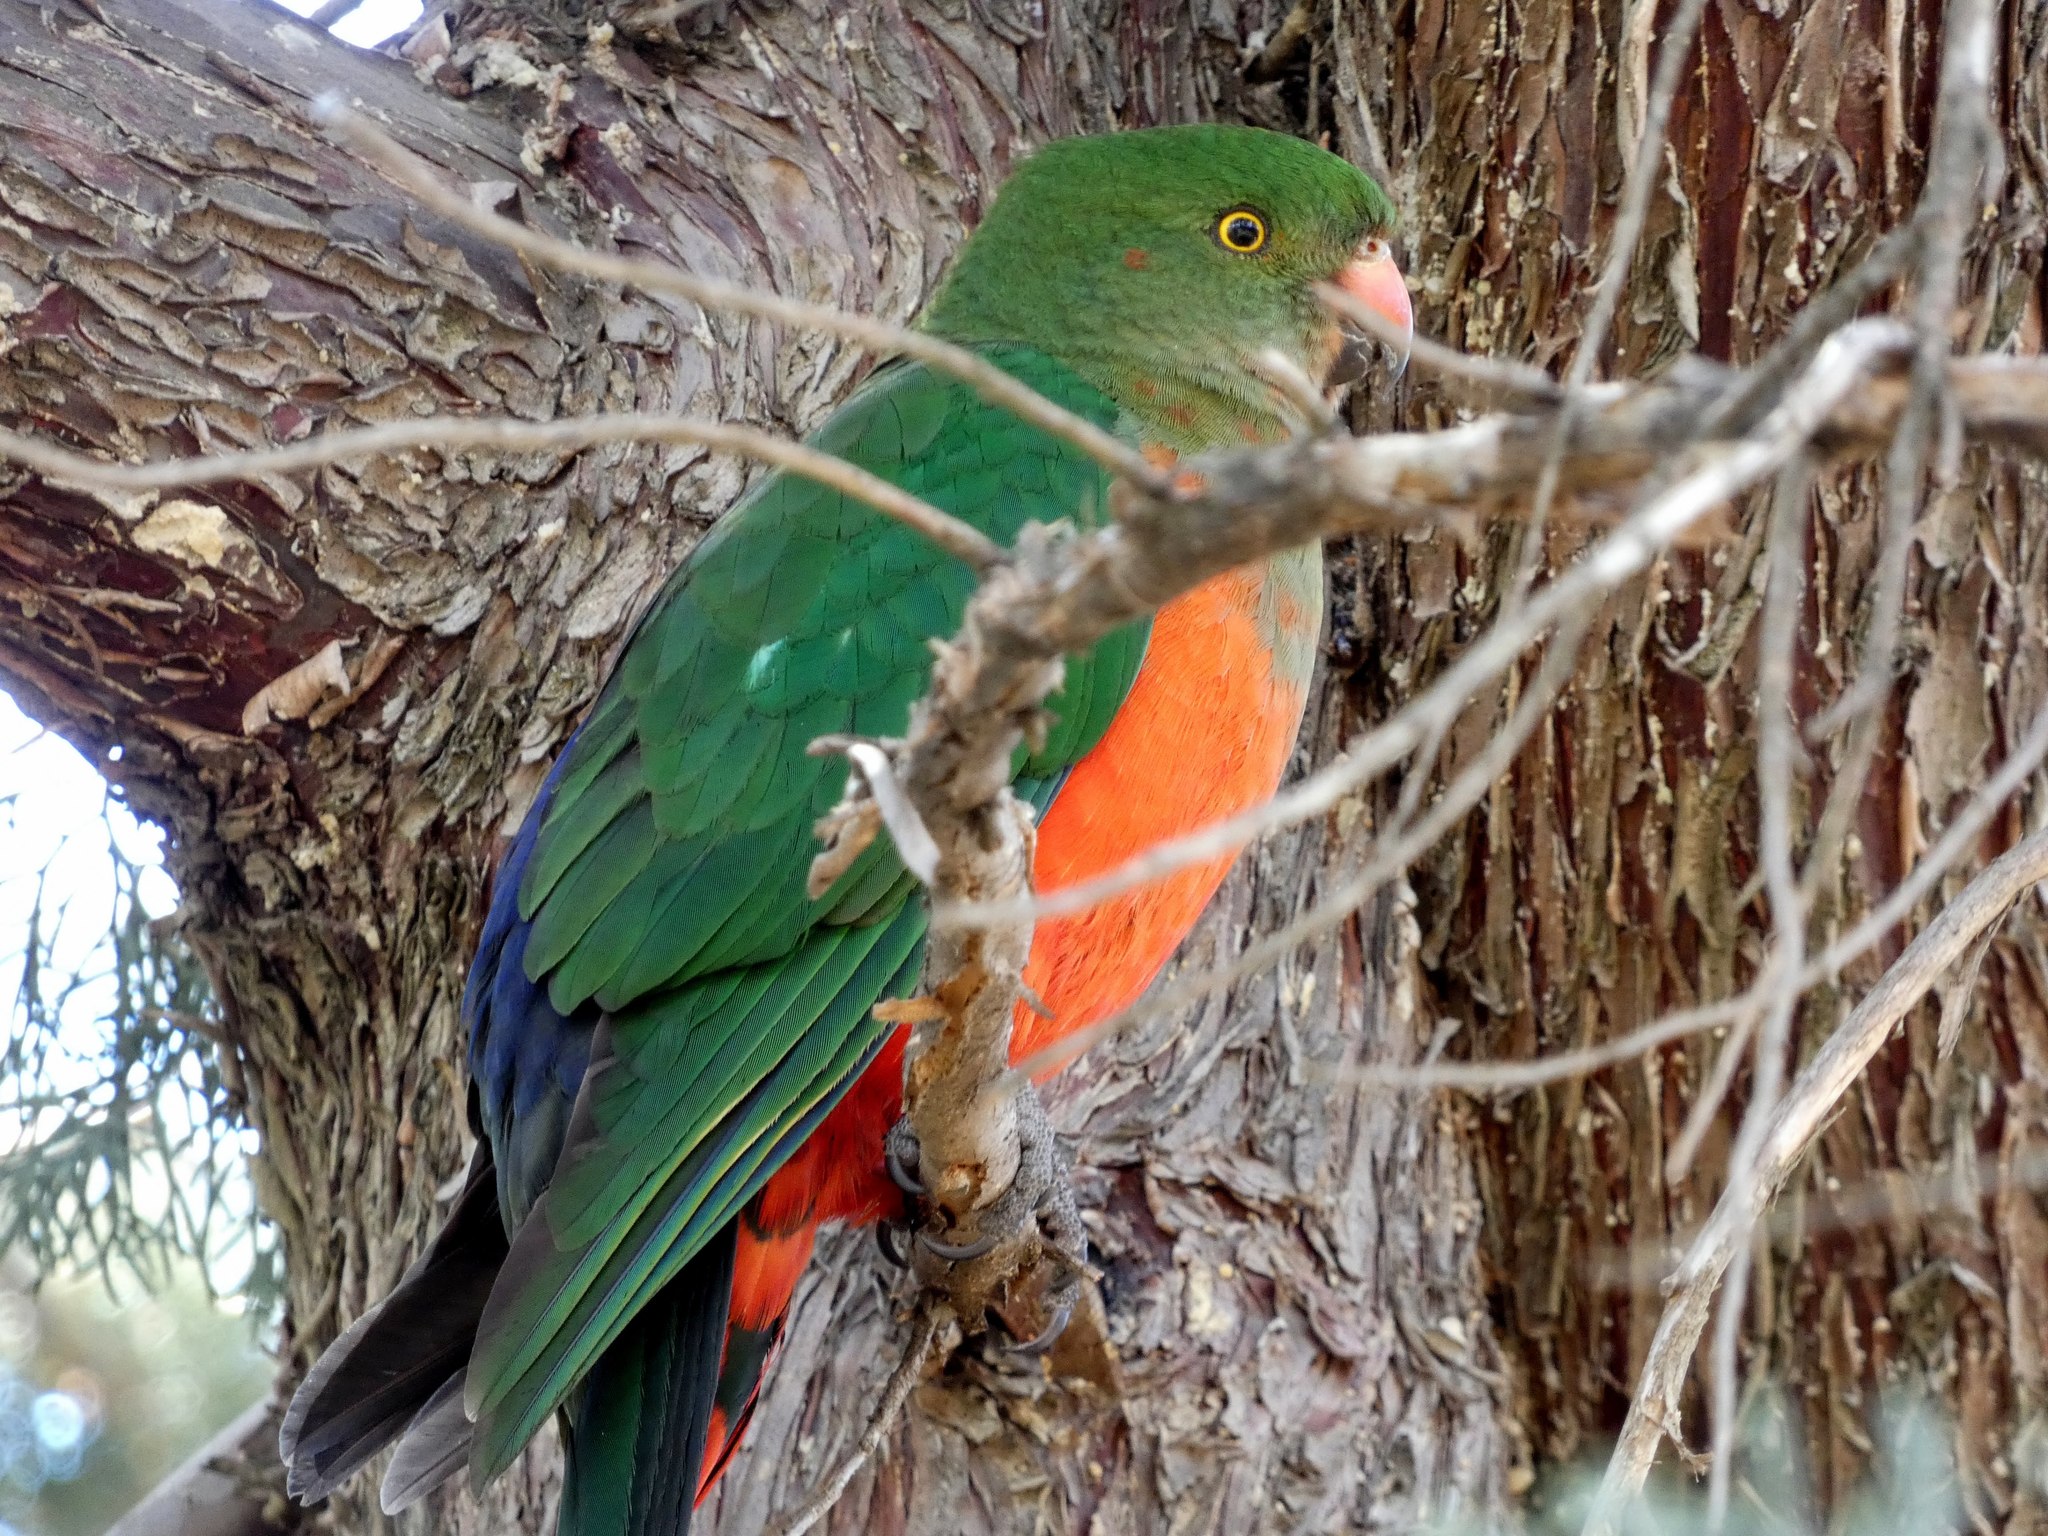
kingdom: Animalia
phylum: Chordata
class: Aves
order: Psittaciformes
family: Psittacidae
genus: Alisterus
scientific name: Alisterus scapularis
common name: Australian king parrot
